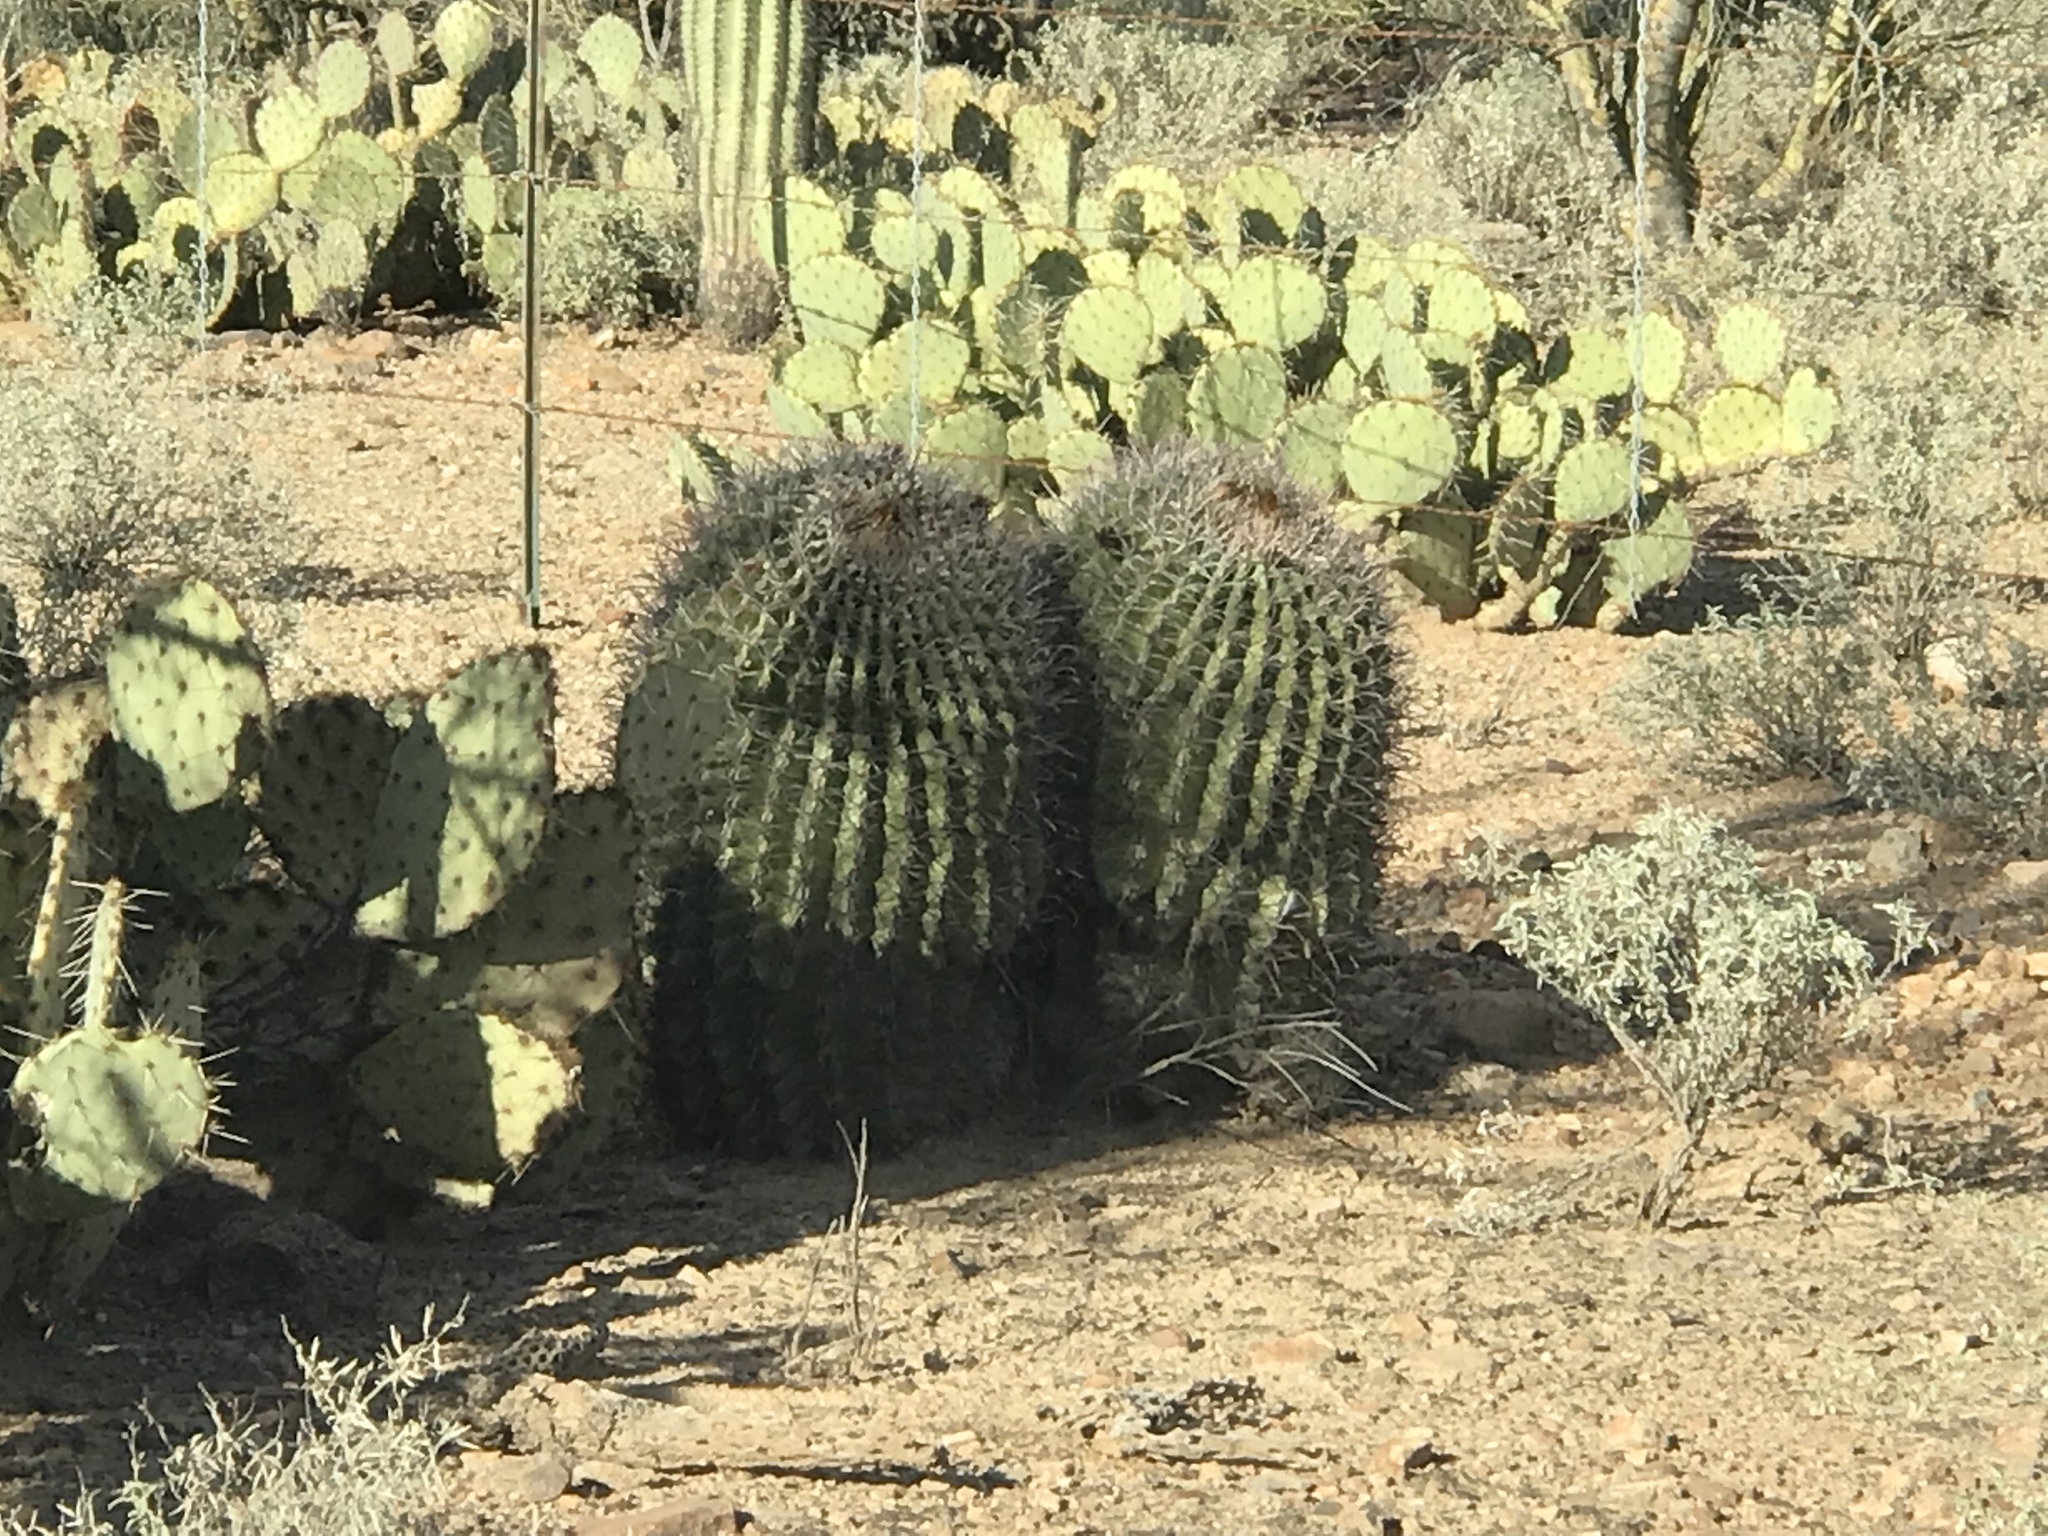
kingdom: Plantae
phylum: Tracheophyta
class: Magnoliopsida
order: Caryophyllales
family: Cactaceae
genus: Ferocactus
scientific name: Ferocactus wislizeni
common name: Candy barrel cactus
